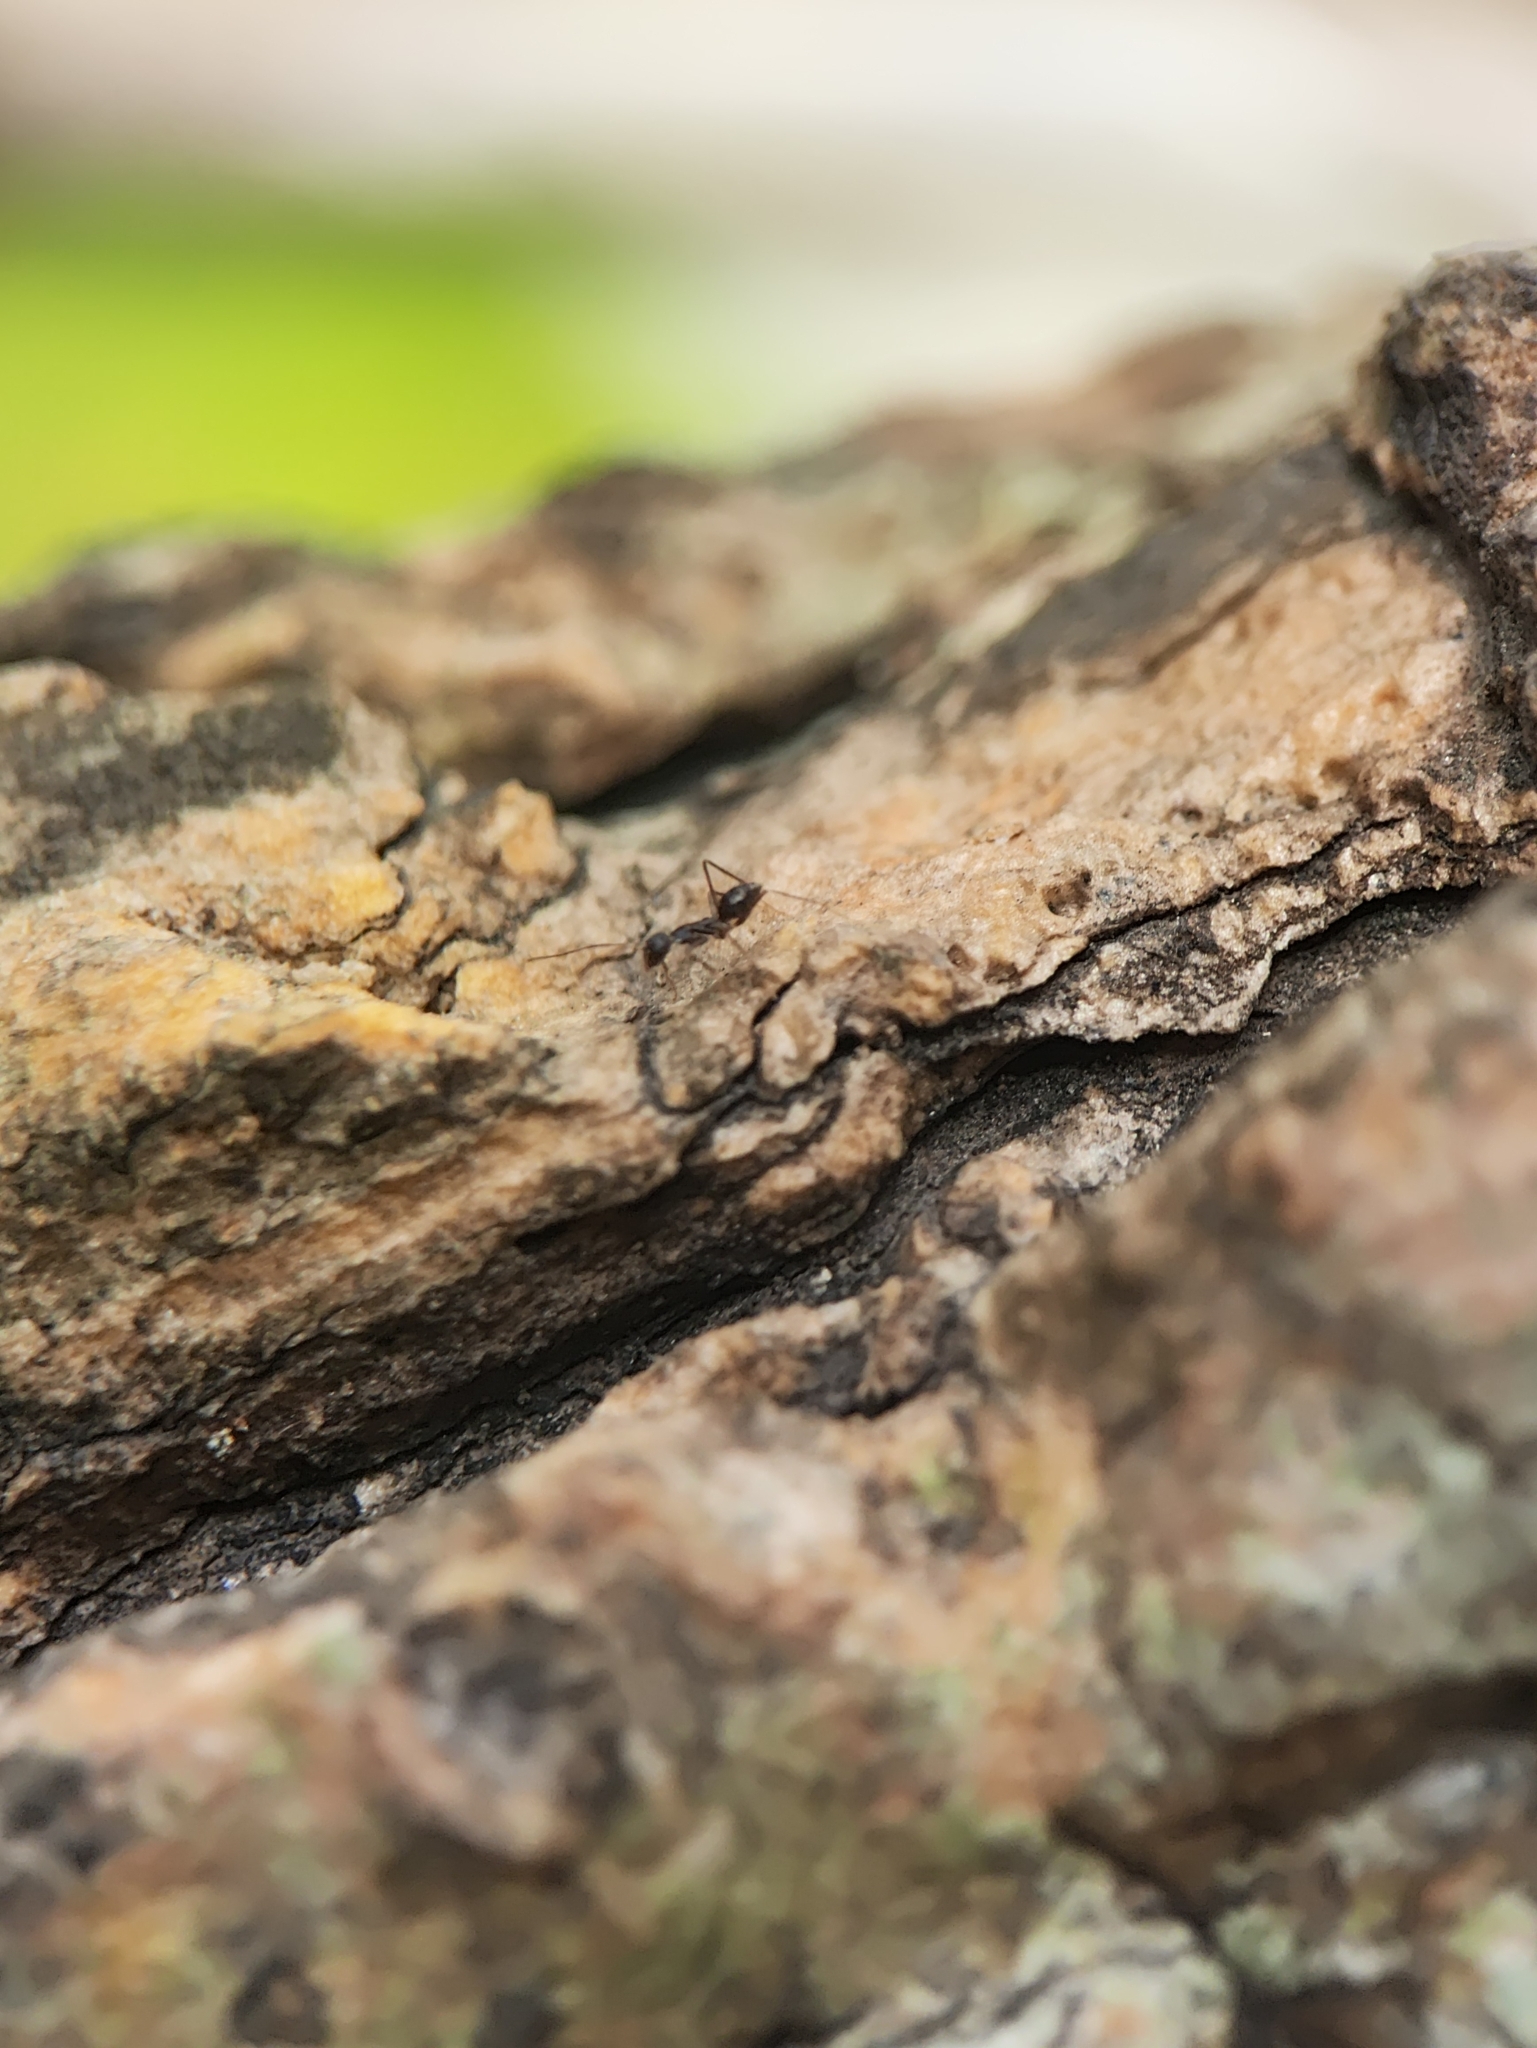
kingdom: Animalia
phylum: Arthropoda
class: Insecta
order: Hymenoptera
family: Formicidae
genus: Paratrechina
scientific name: Paratrechina longicornis
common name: Longhorned crazy ant
